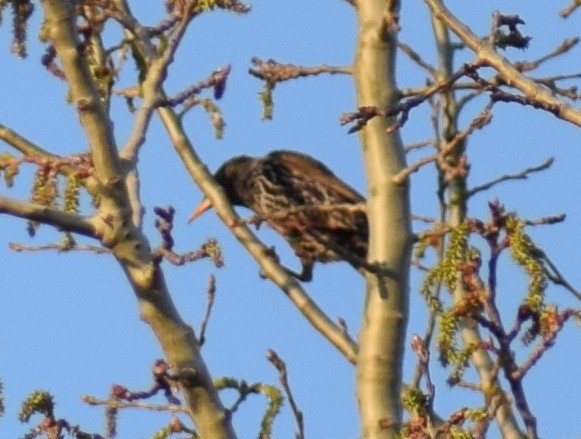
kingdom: Animalia
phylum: Chordata
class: Aves
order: Passeriformes
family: Sturnidae
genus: Sturnus
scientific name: Sturnus vulgaris
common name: Common starling
